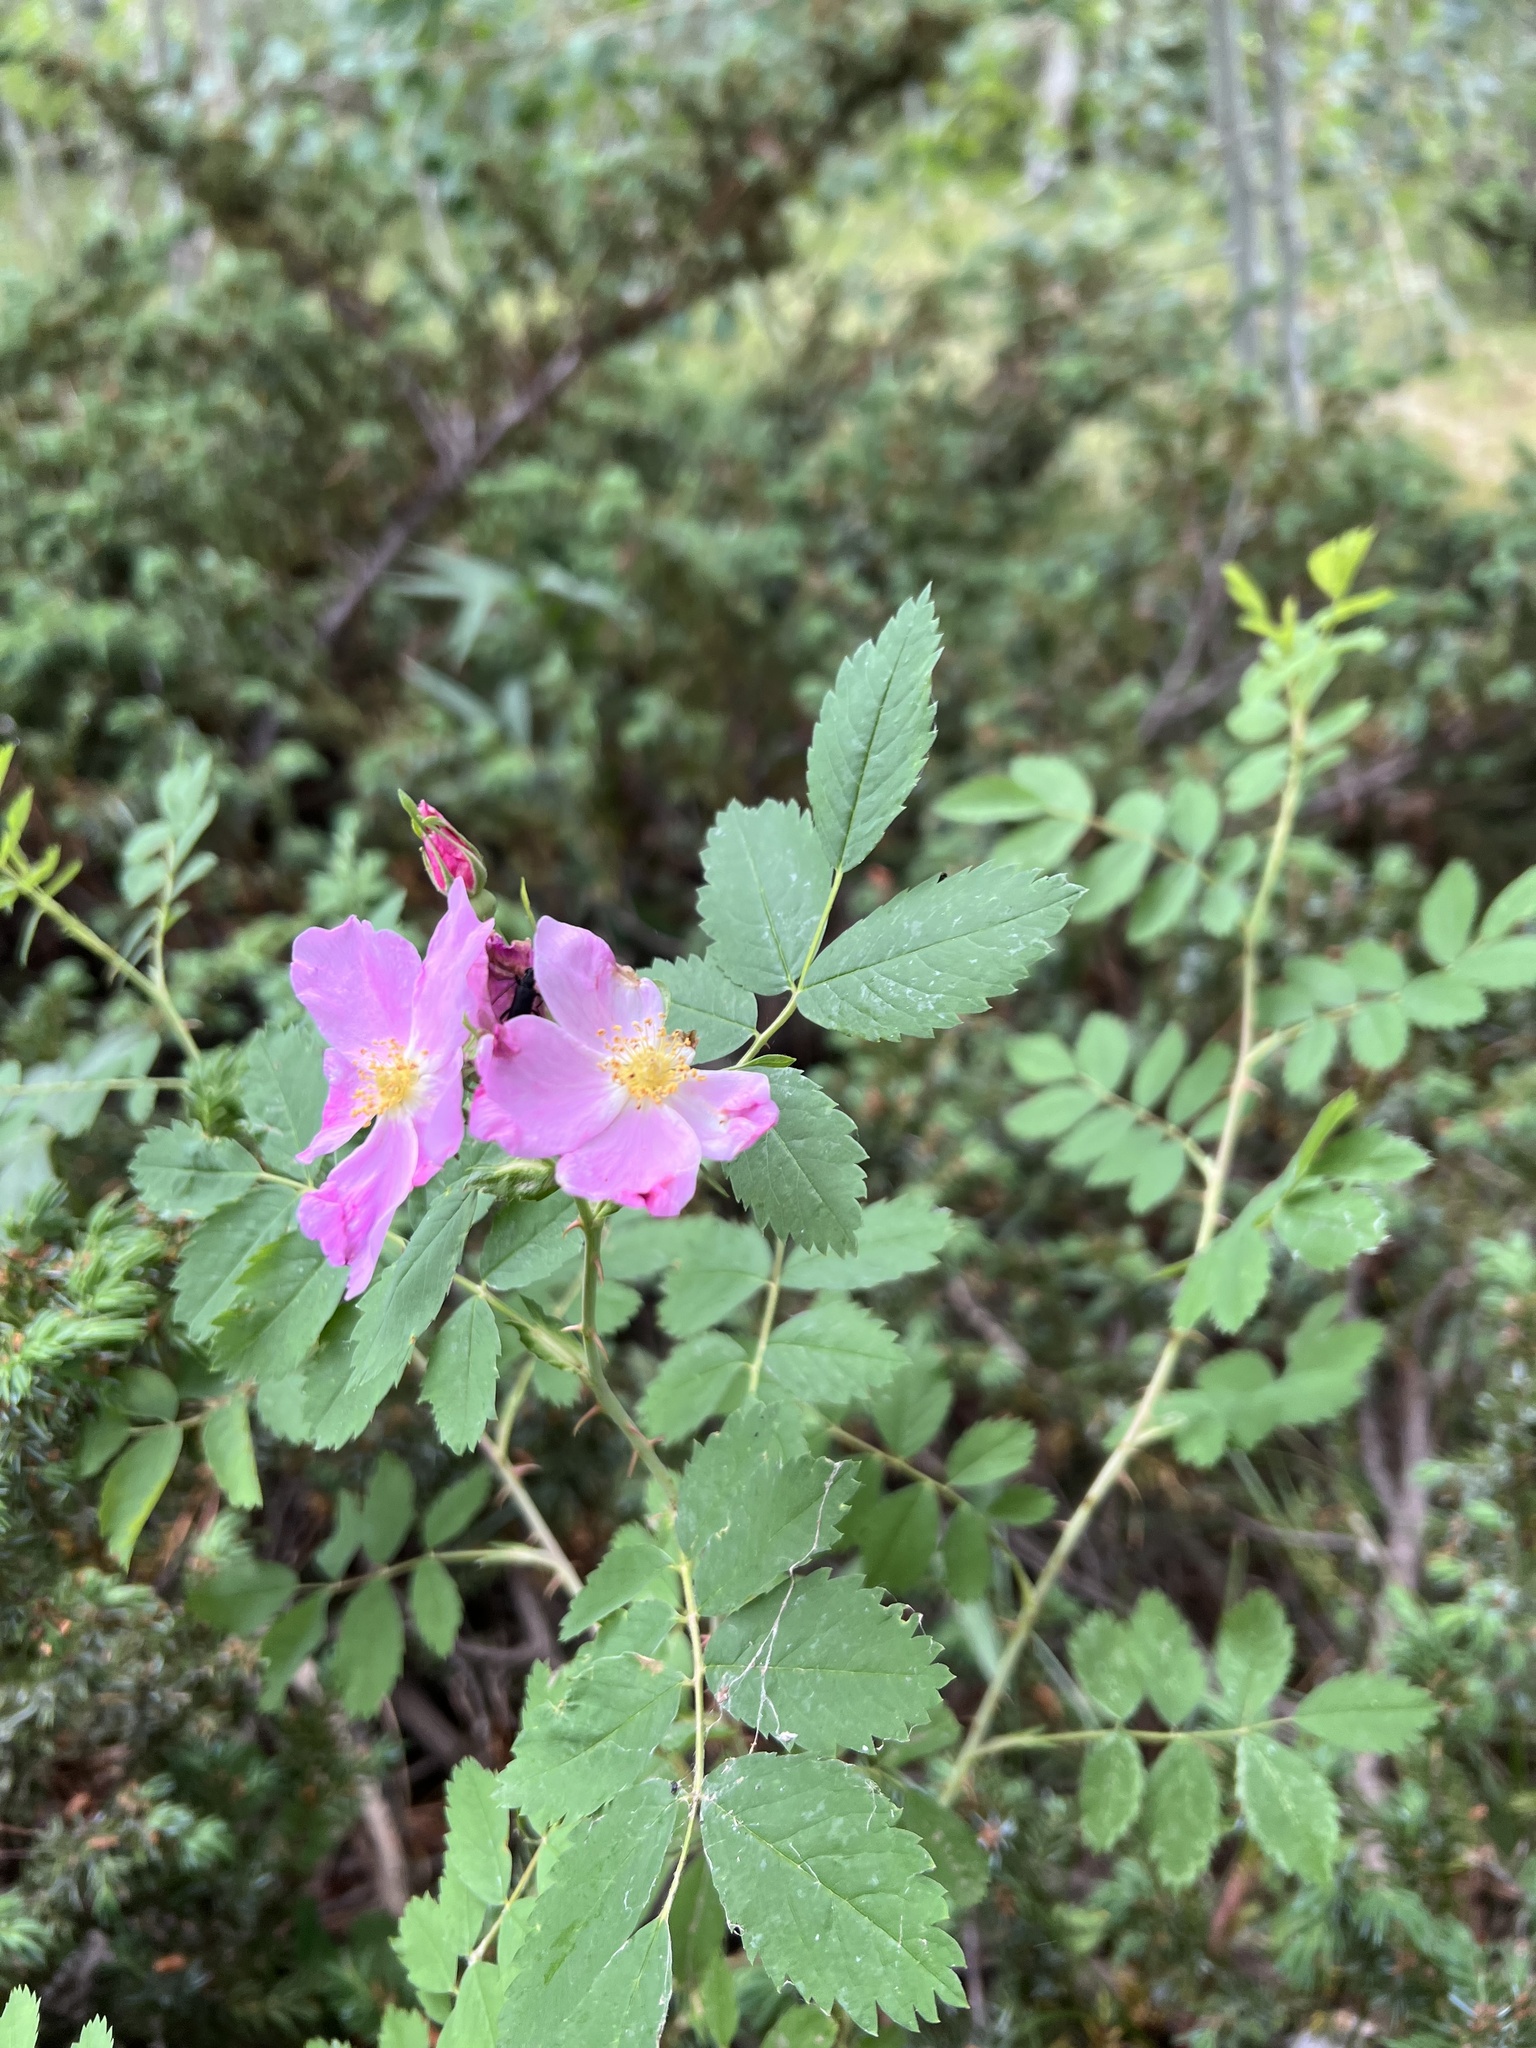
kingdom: Plantae
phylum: Tracheophyta
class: Magnoliopsida
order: Rosales
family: Rosaceae
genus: Rosa
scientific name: Rosa woodsii
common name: Woods's rose
